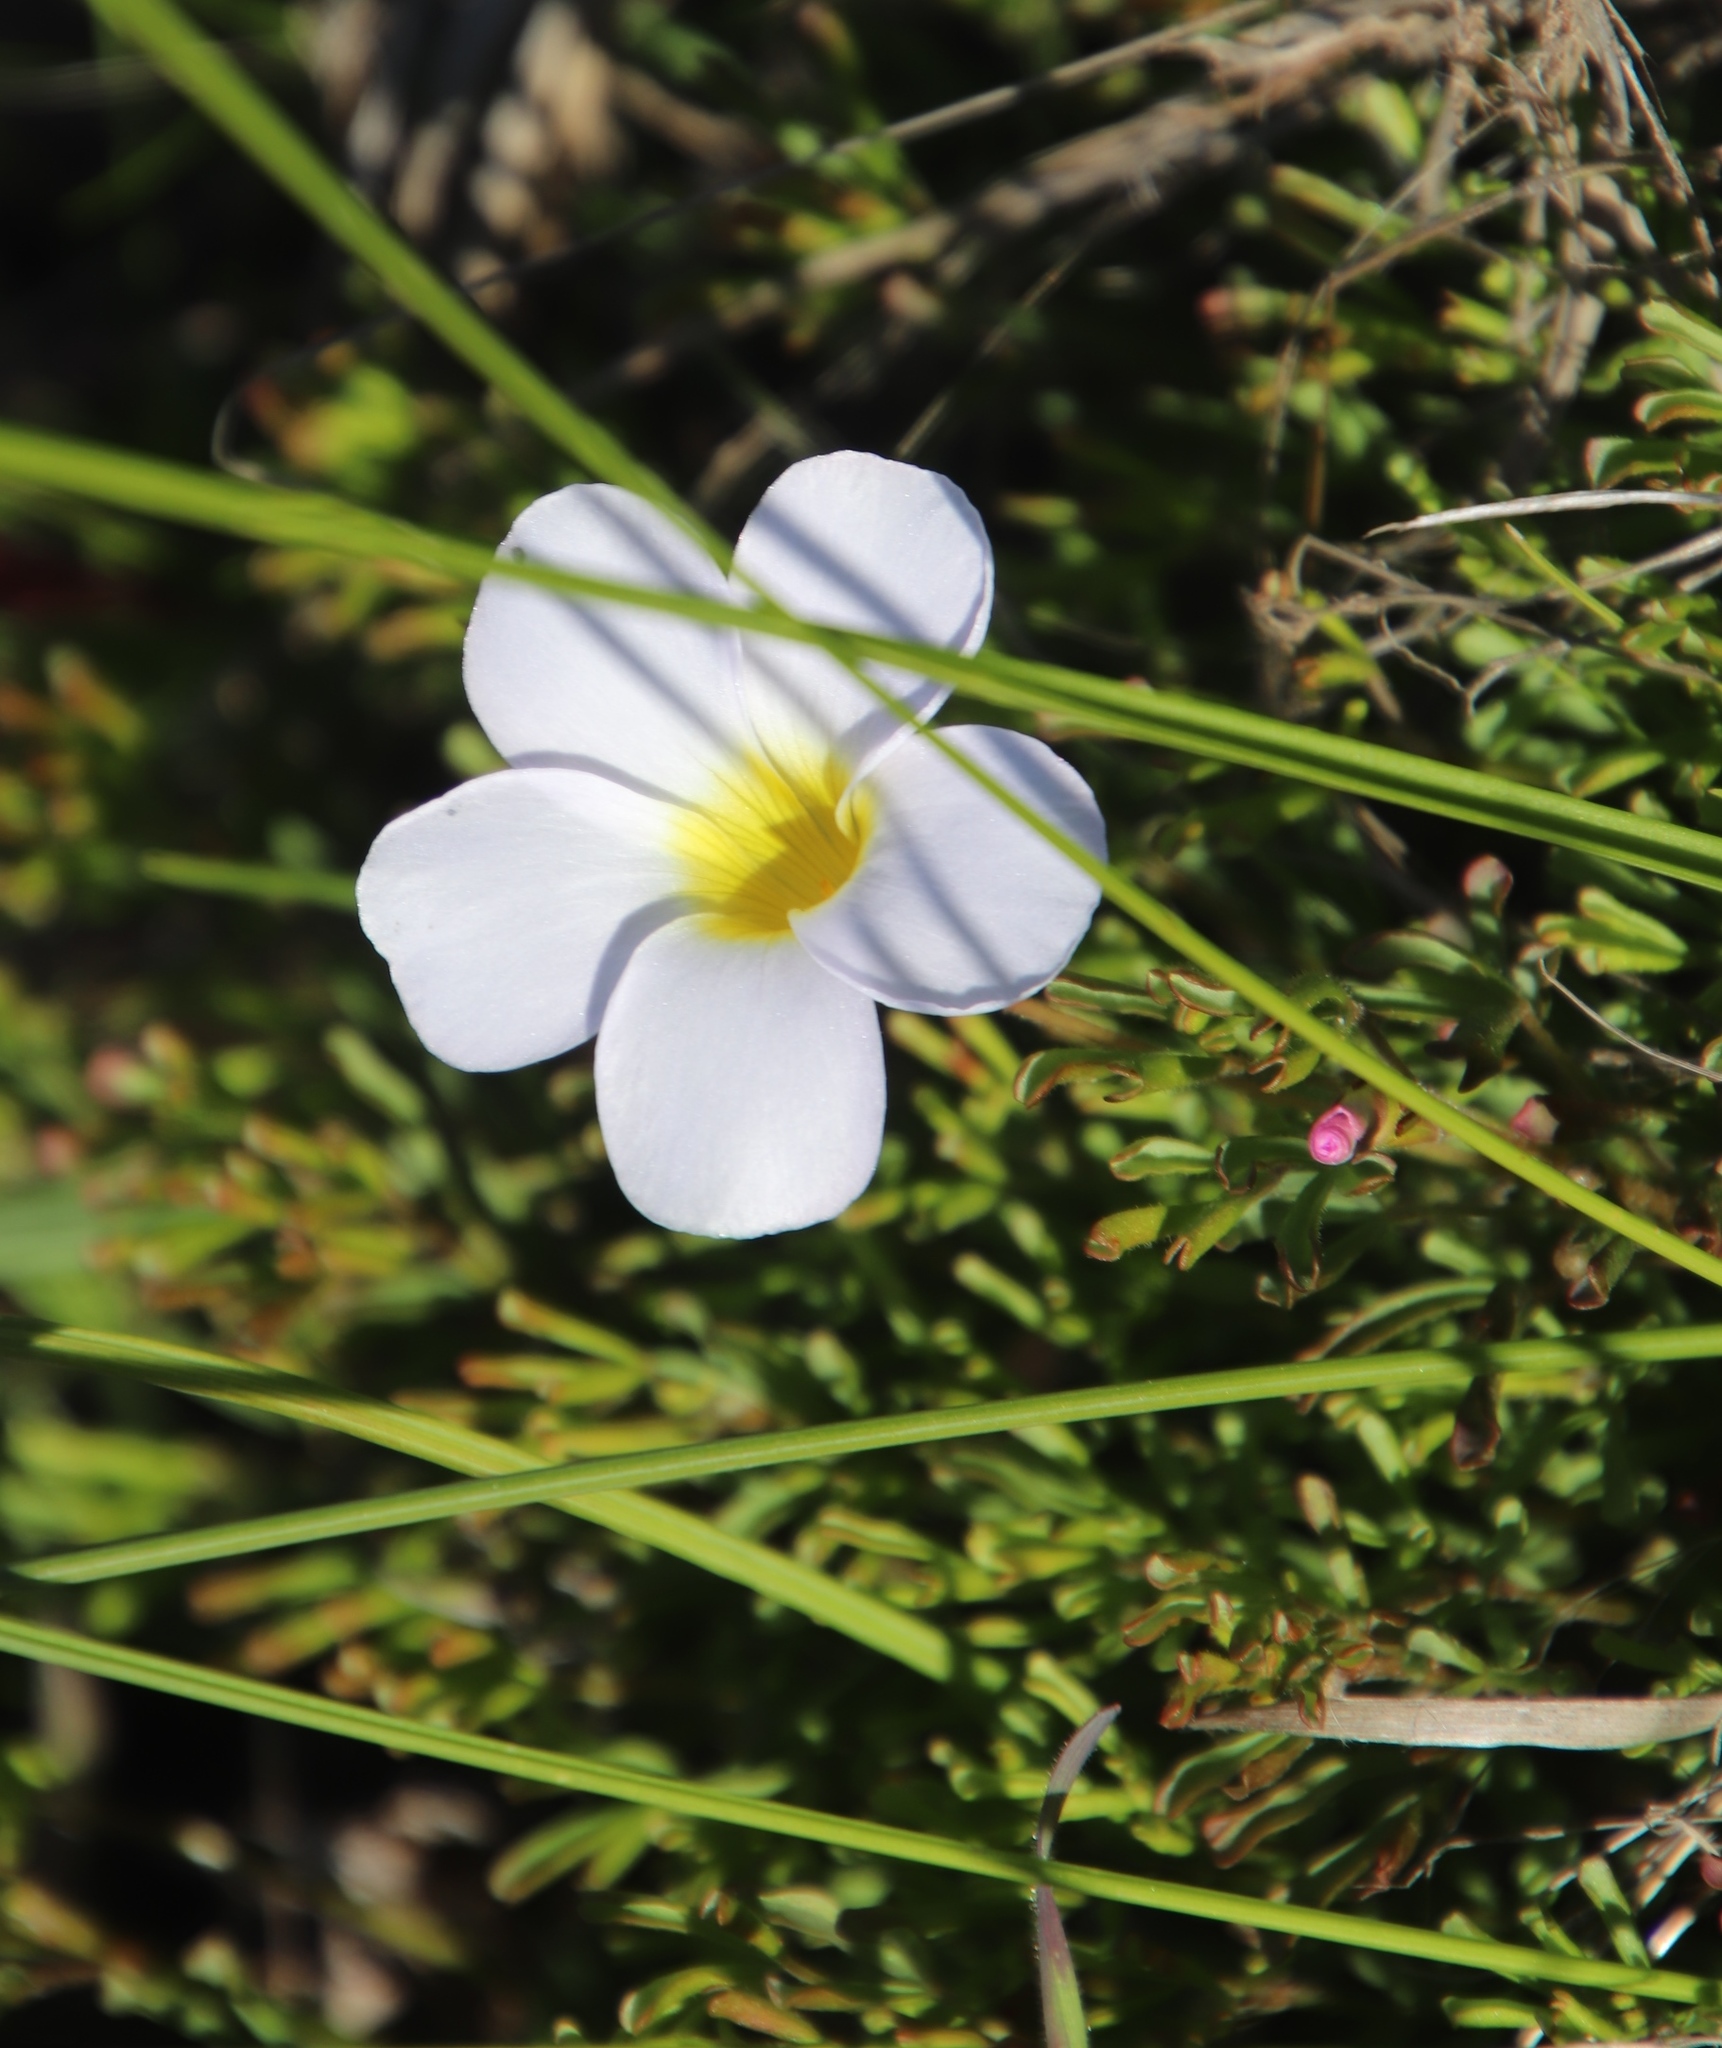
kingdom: Plantae
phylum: Tracheophyta
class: Magnoliopsida
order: Oxalidales
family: Oxalidaceae
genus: Oxalis
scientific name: Oxalis recticaulis
